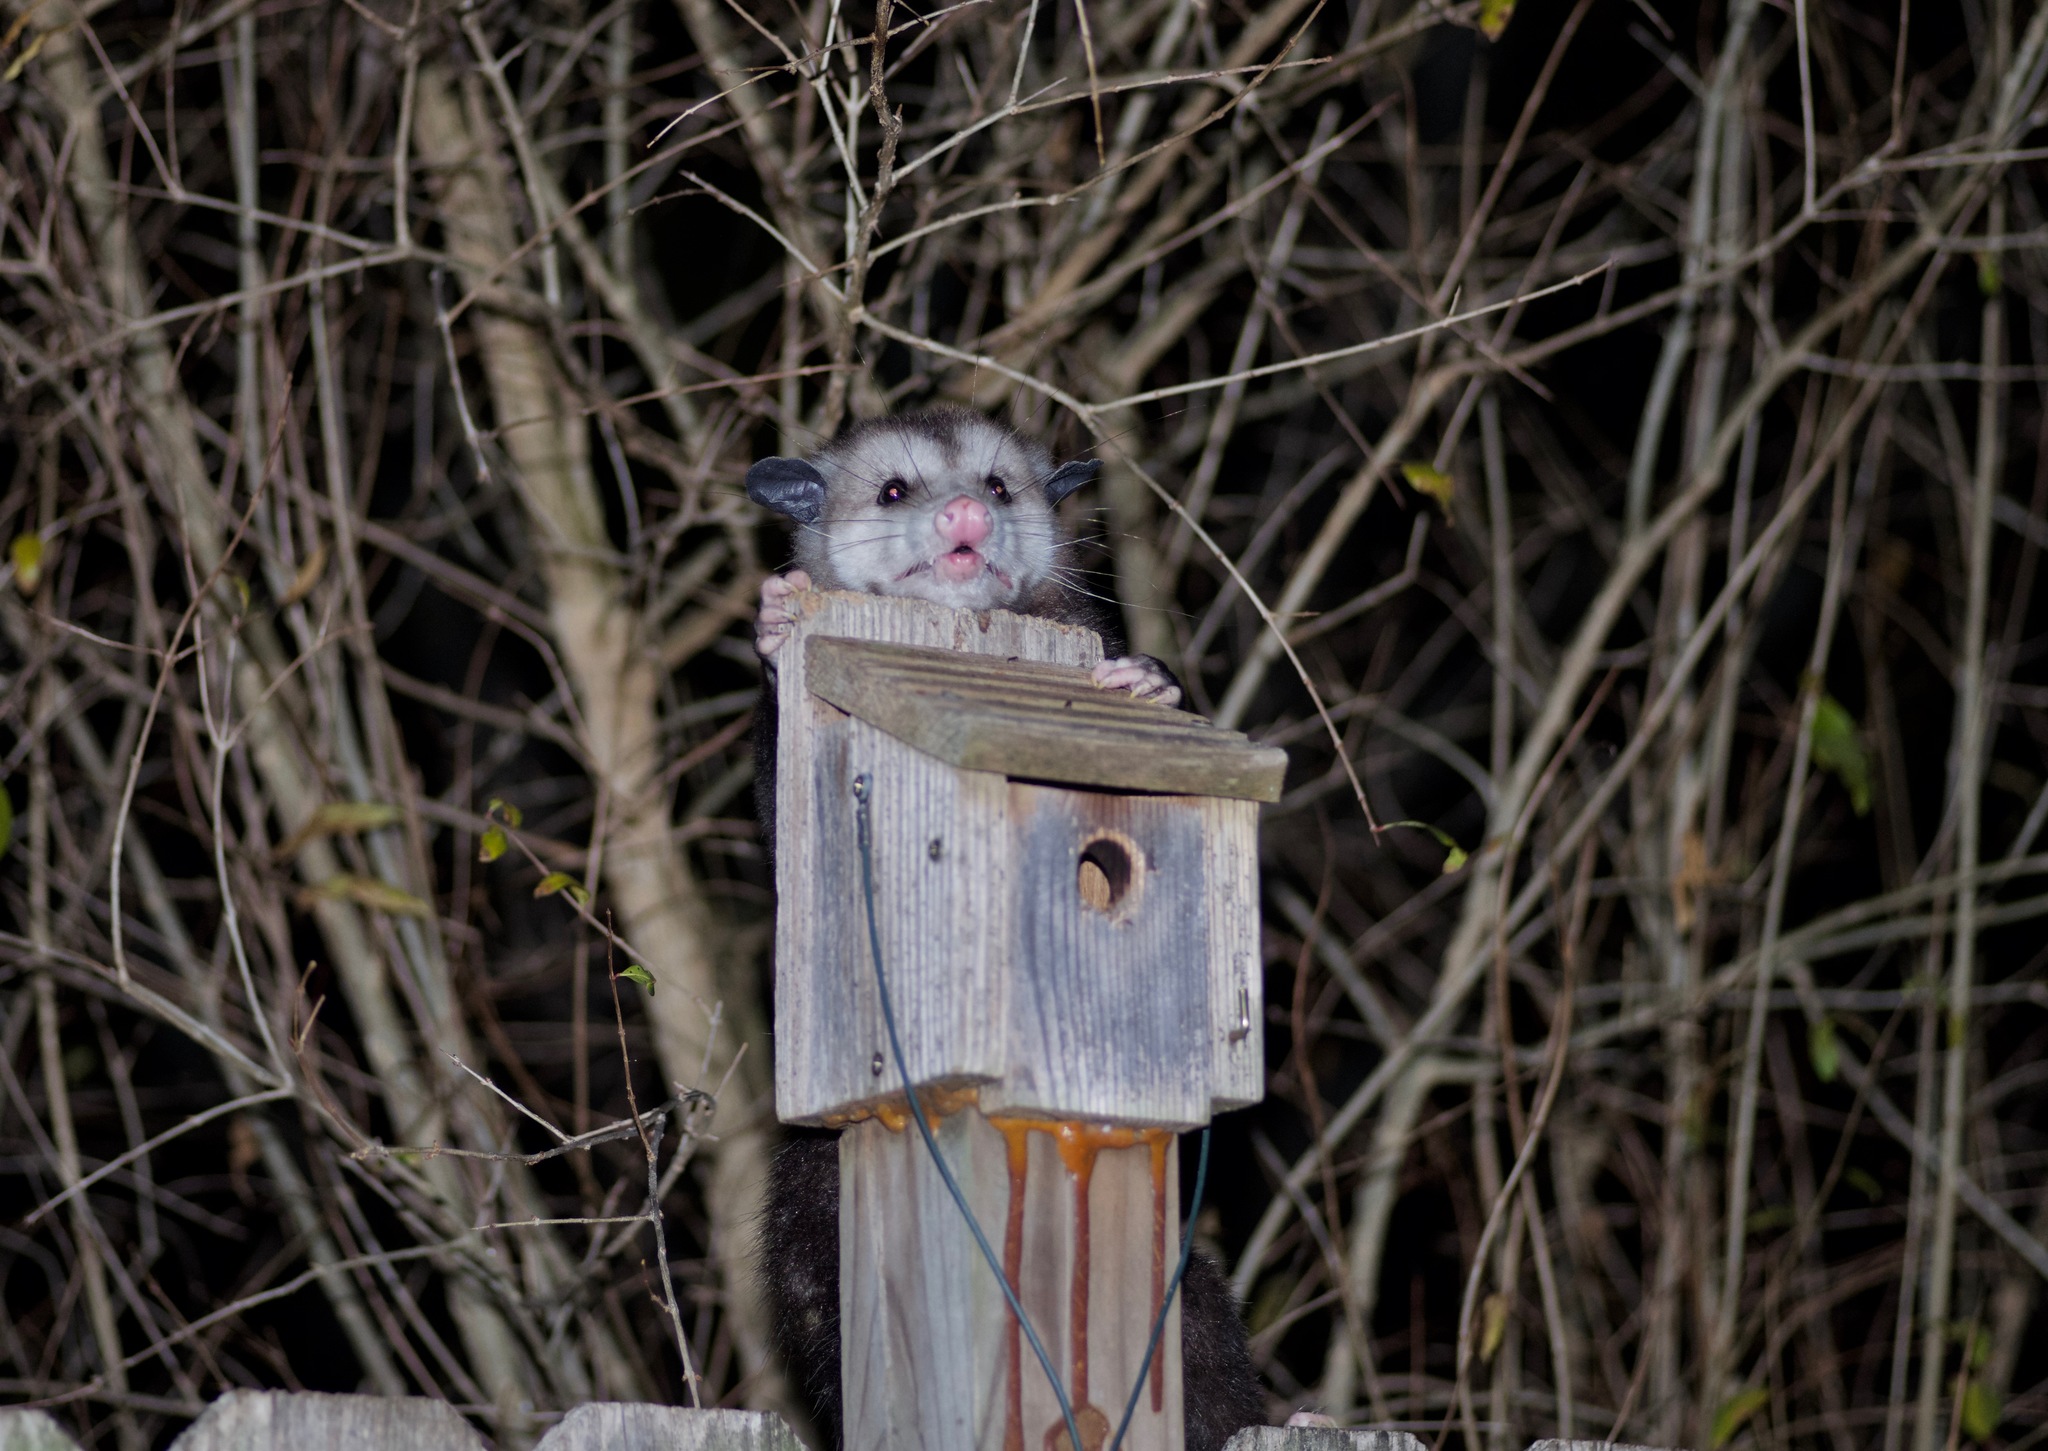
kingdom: Animalia
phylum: Chordata
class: Mammalia
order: Didelphimorphia
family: Didelphidae
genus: Didelphis
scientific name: Didelphis virginiana
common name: Virginia opossum
